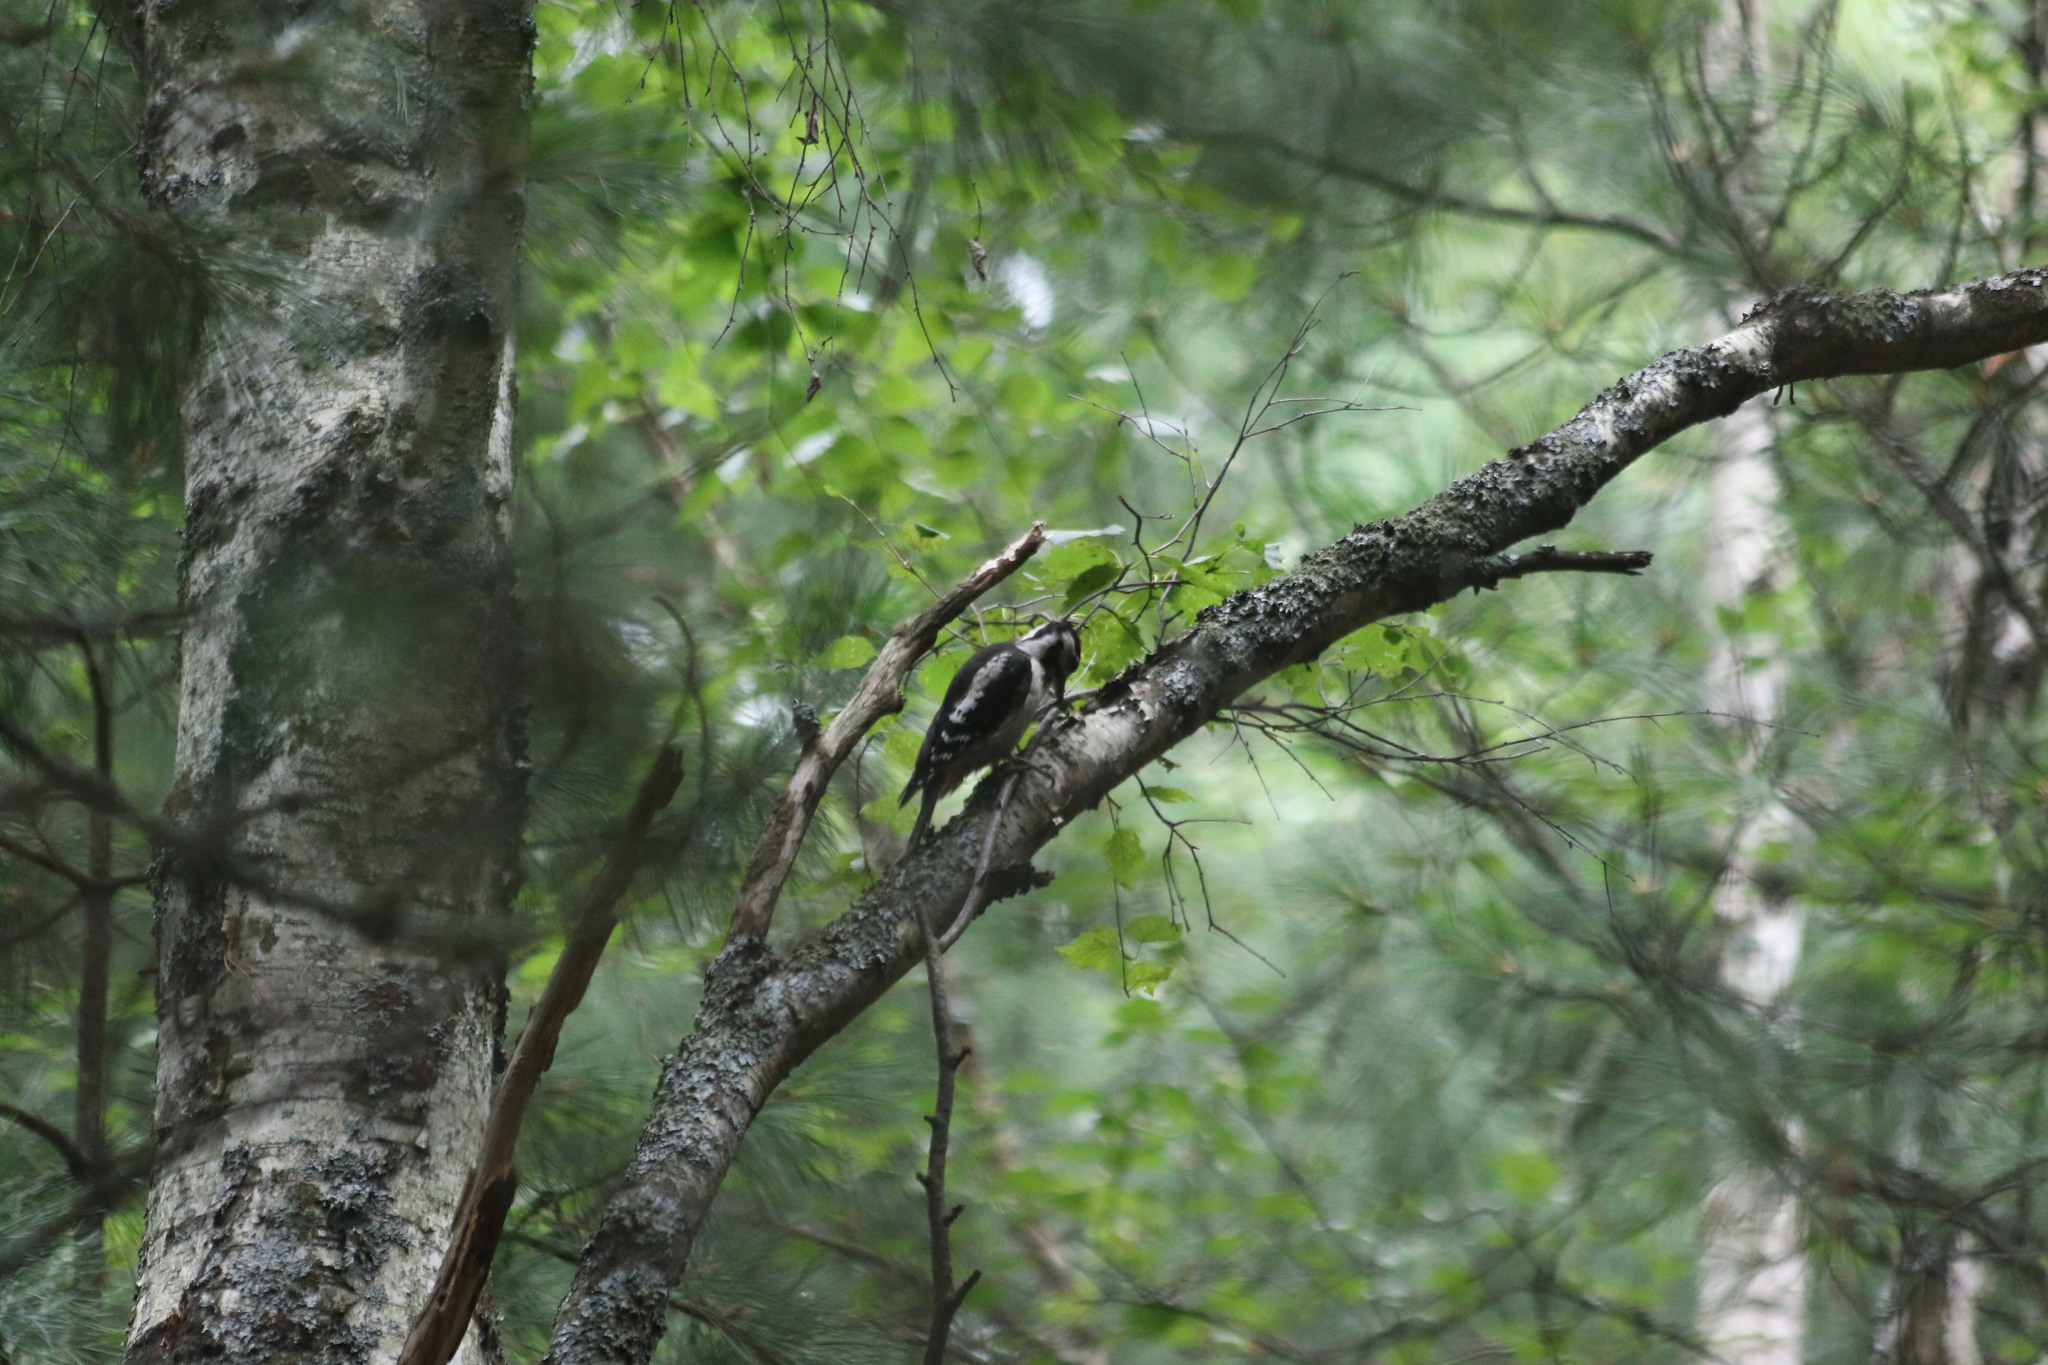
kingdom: Animalia
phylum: Chordata
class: Aves
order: Piciformes
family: Picidae
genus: Dendrocopos
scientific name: Dendrocopos major
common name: Great spotted woodpecker
